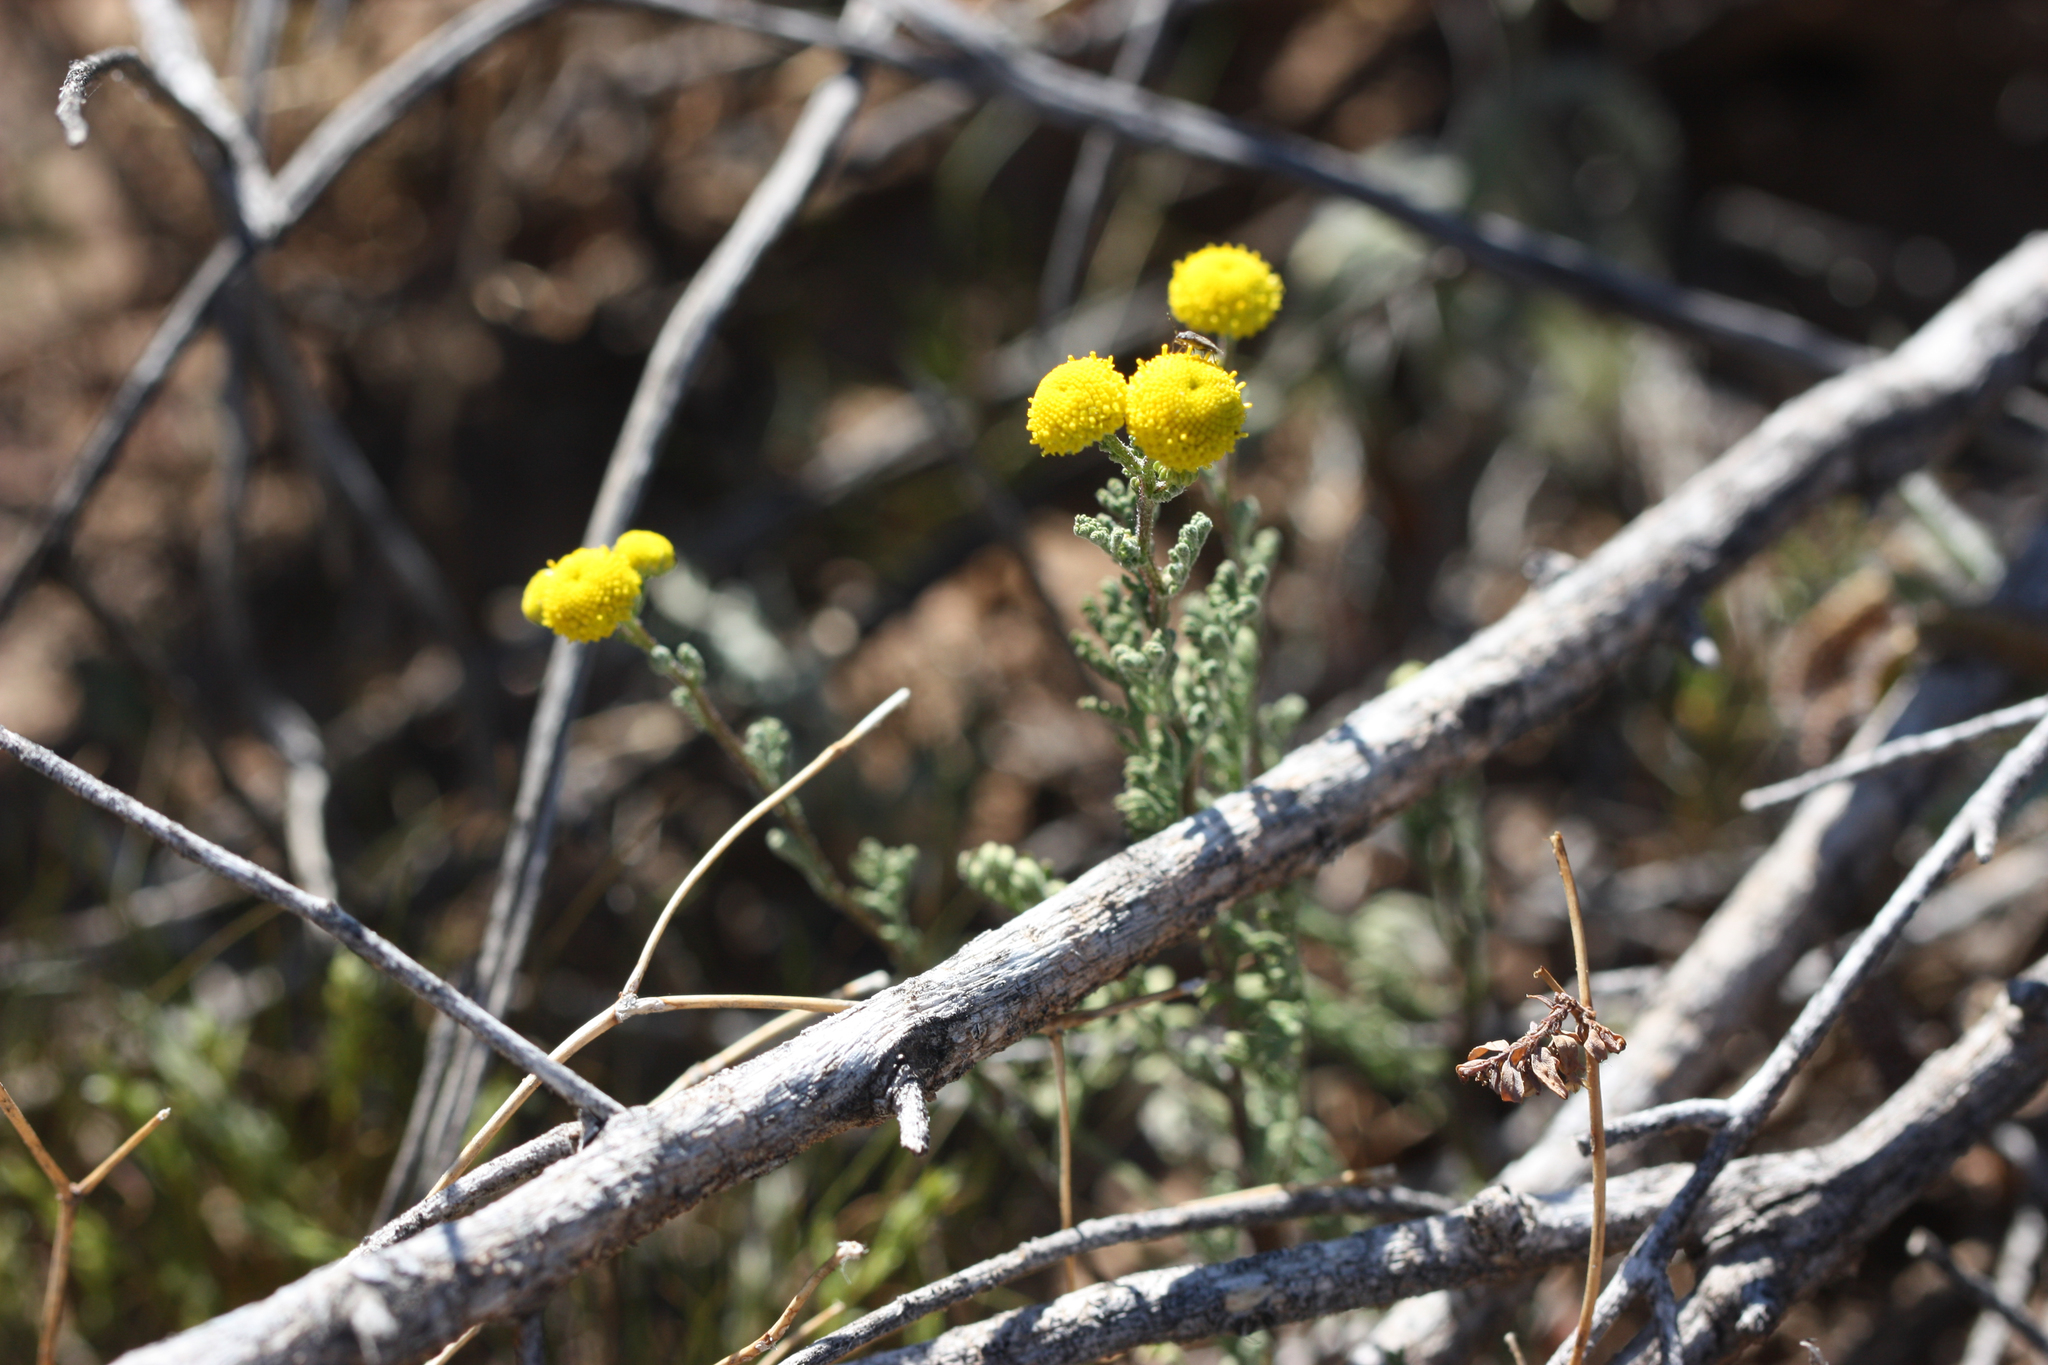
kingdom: Plantae
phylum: Tracheophyta
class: Magnoliopsida
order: Asterales
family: Asteraceae
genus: Oncosiphon
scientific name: Oncosiphon pilulifer
